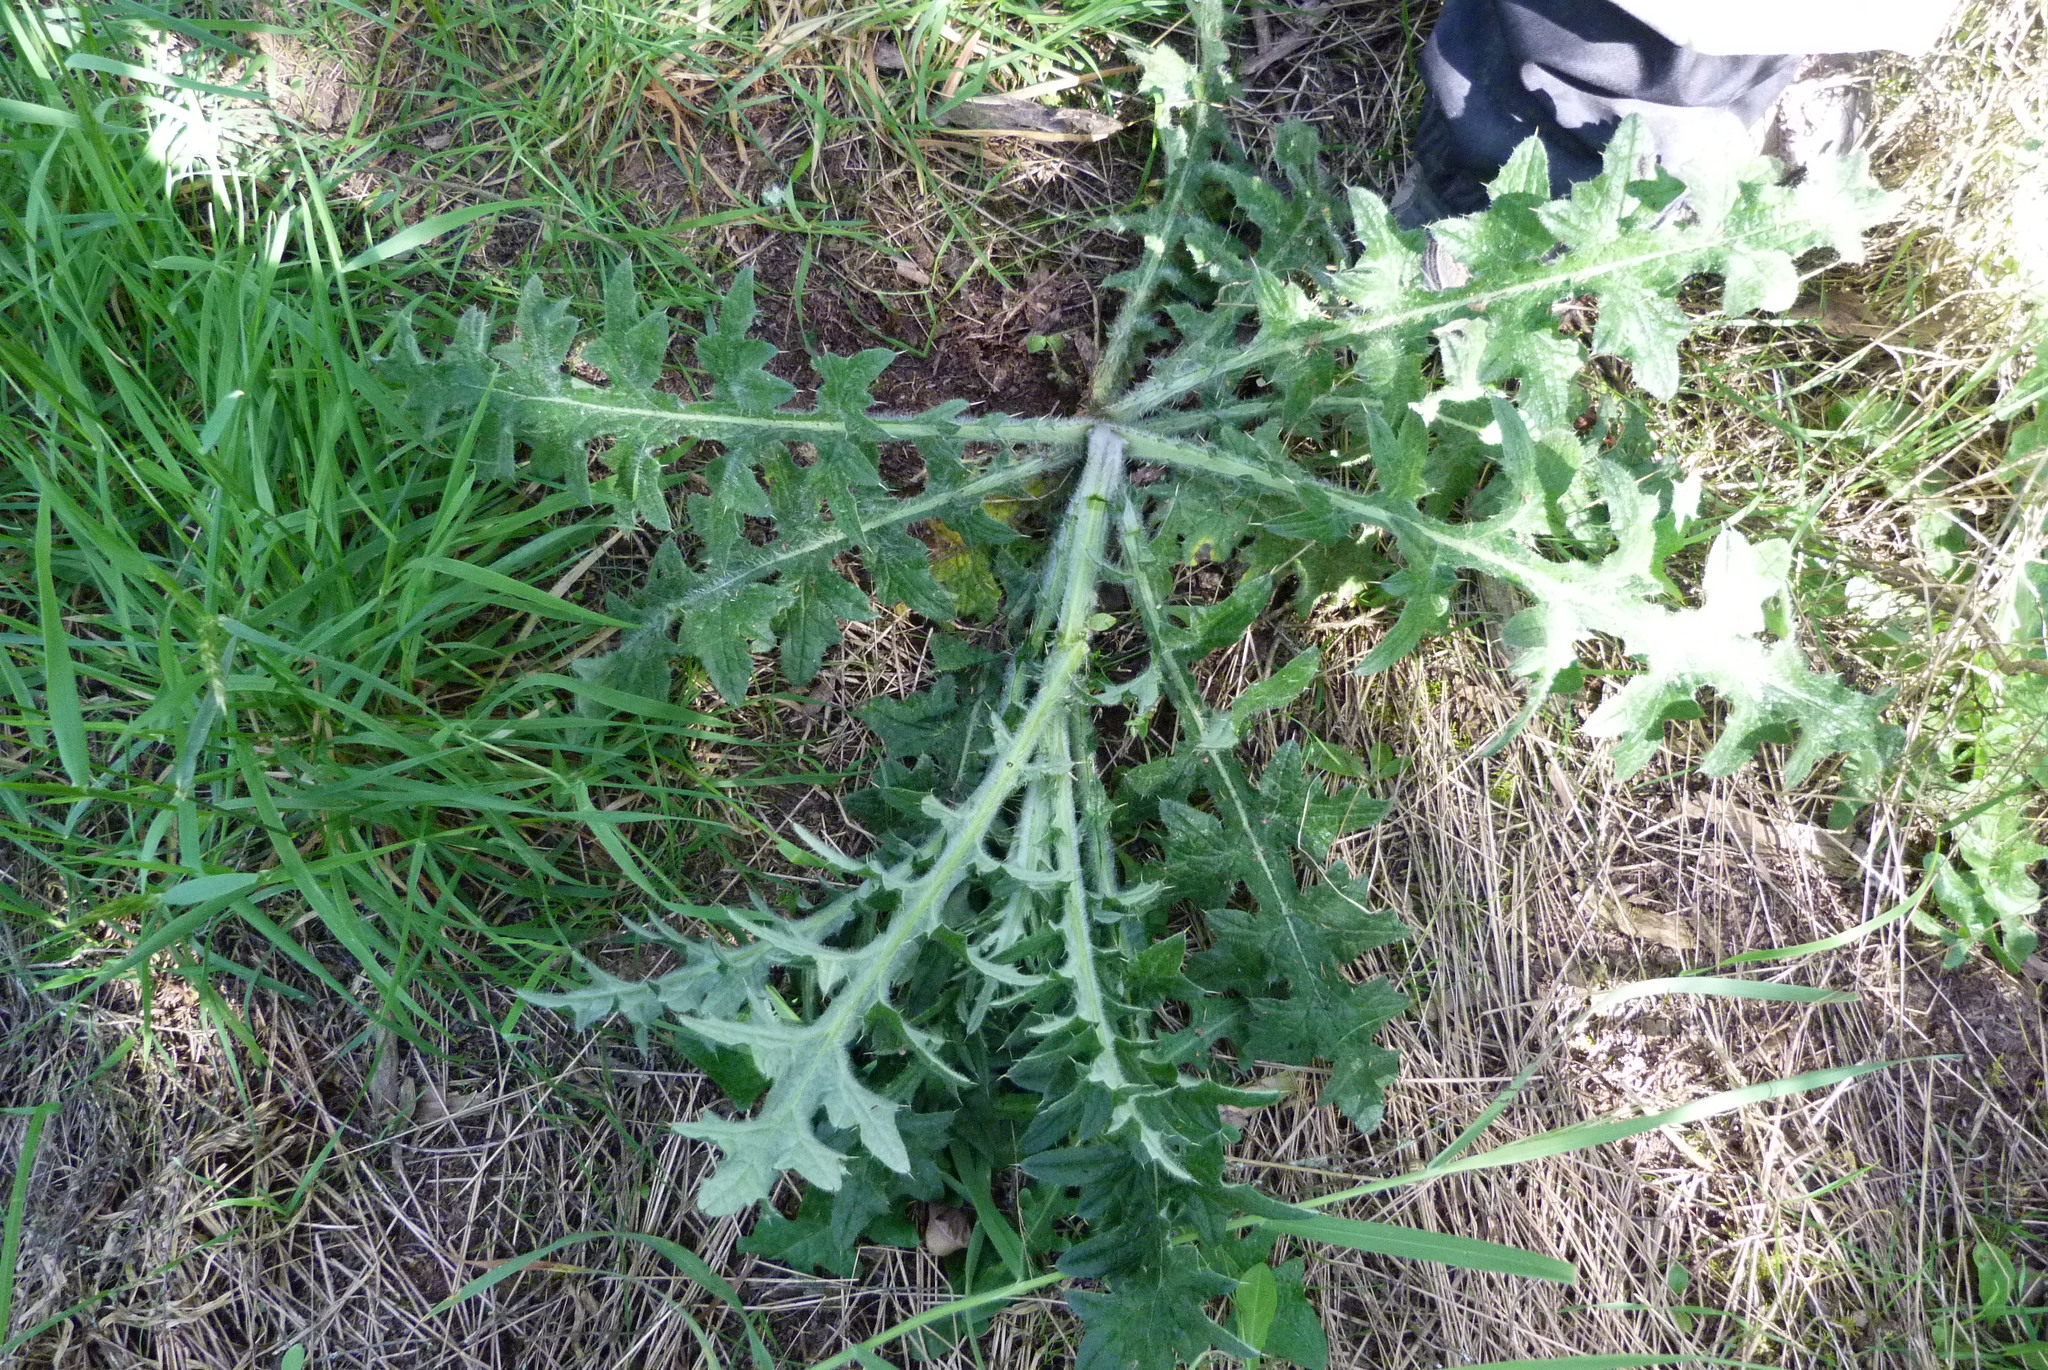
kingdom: Plantae
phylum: Tracheophyta
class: Magnoliopsida
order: Asterales
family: Asteraceae
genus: Cirsium
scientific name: Cirsium vulgare
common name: Bull thistle
